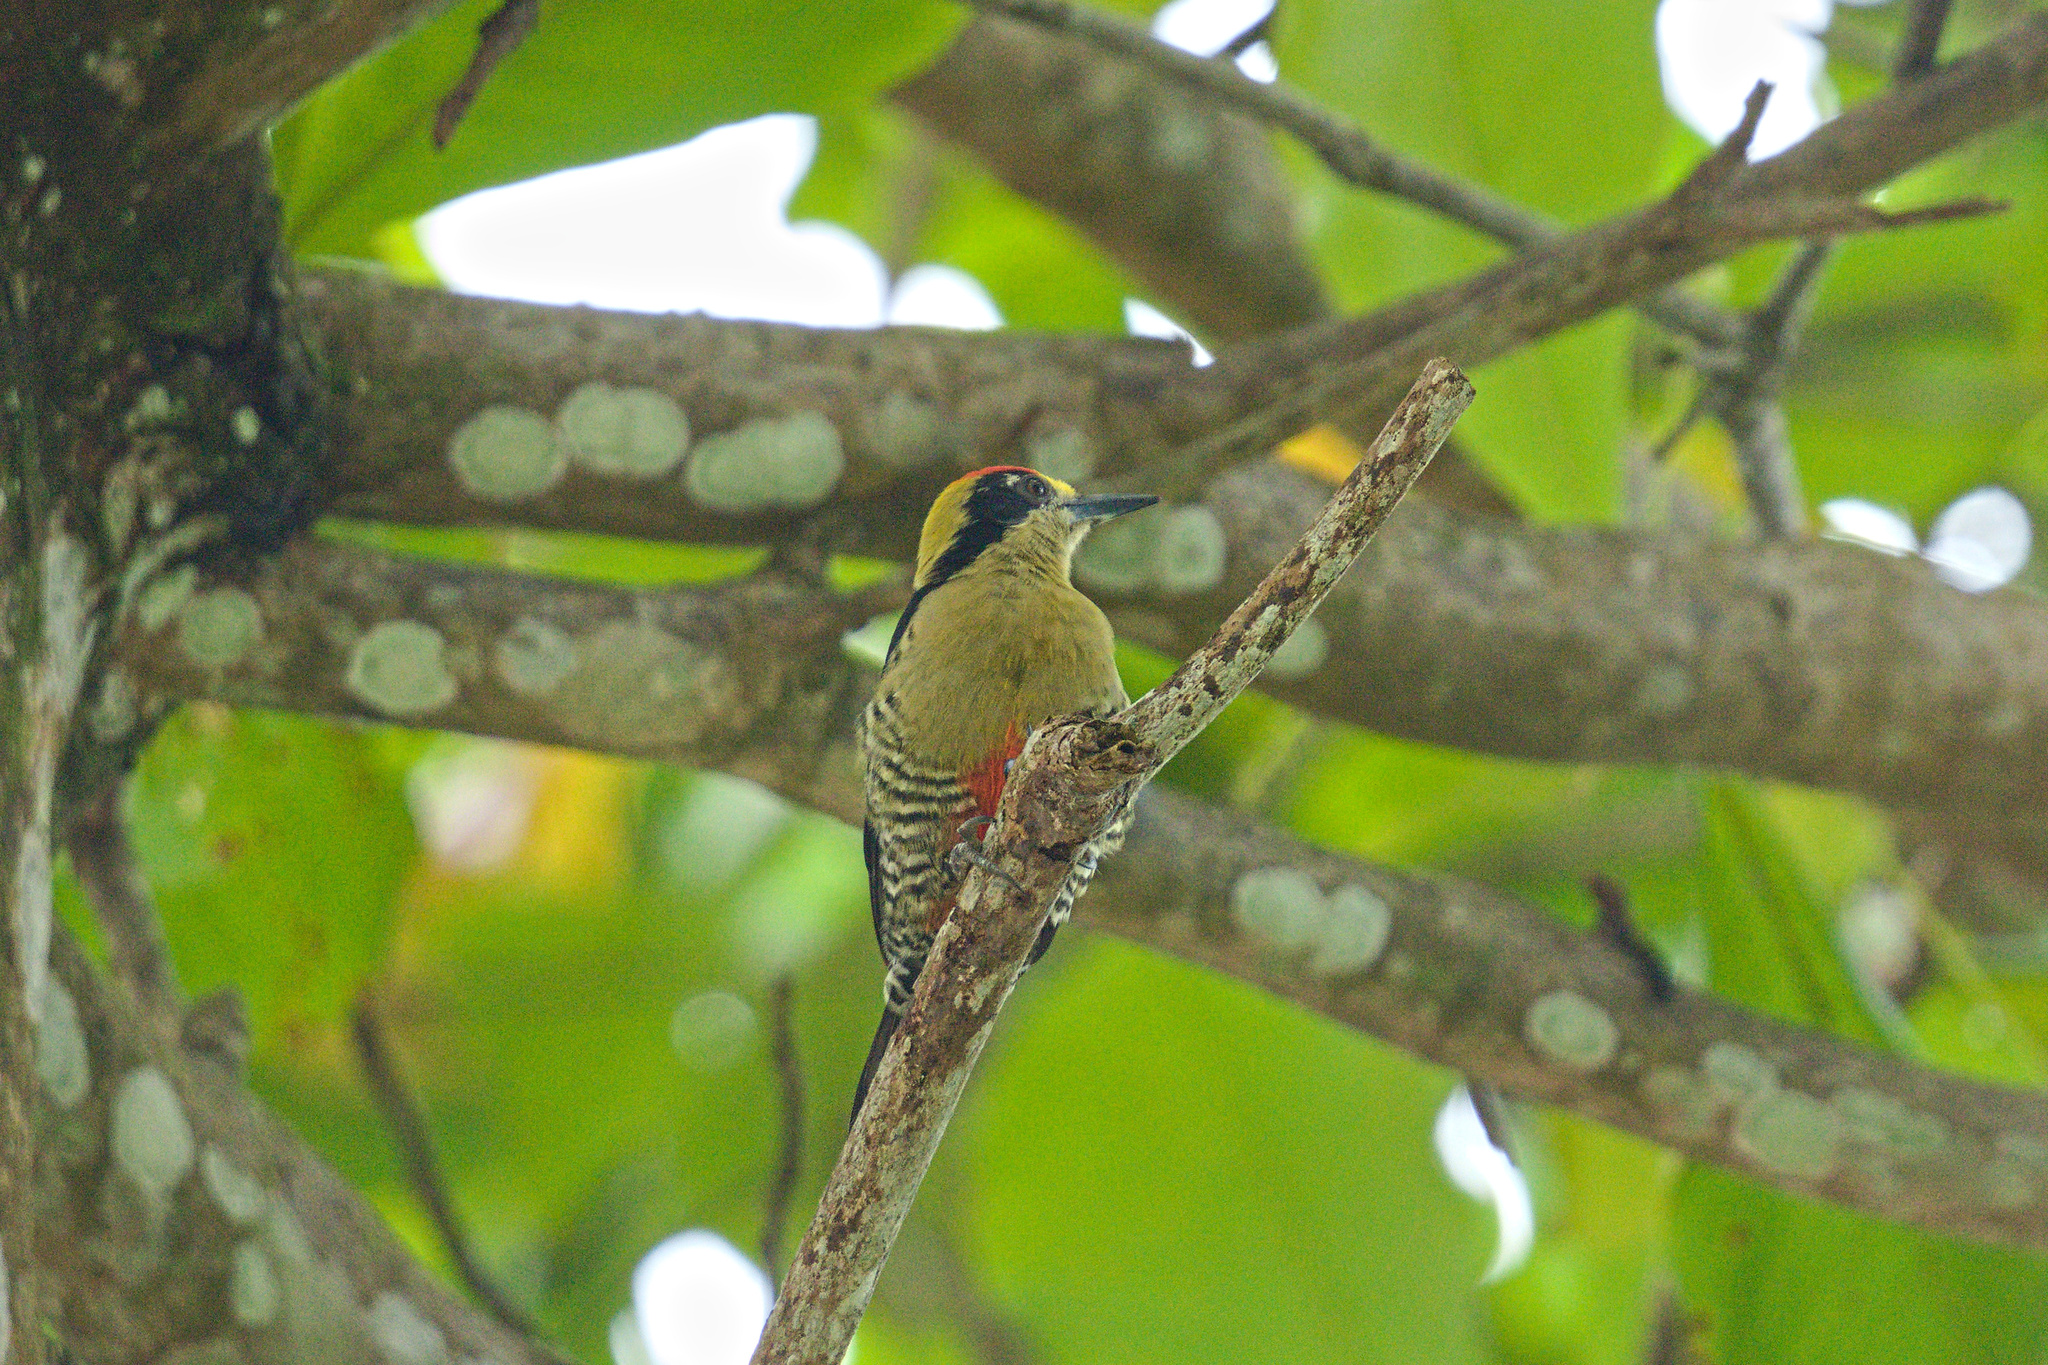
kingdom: Animalia
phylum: Chordata
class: Aves
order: Piciformes
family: Picidae
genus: Melanerpes
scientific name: Melanerpes chrysauchen
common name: Golden-naped woodpecker
